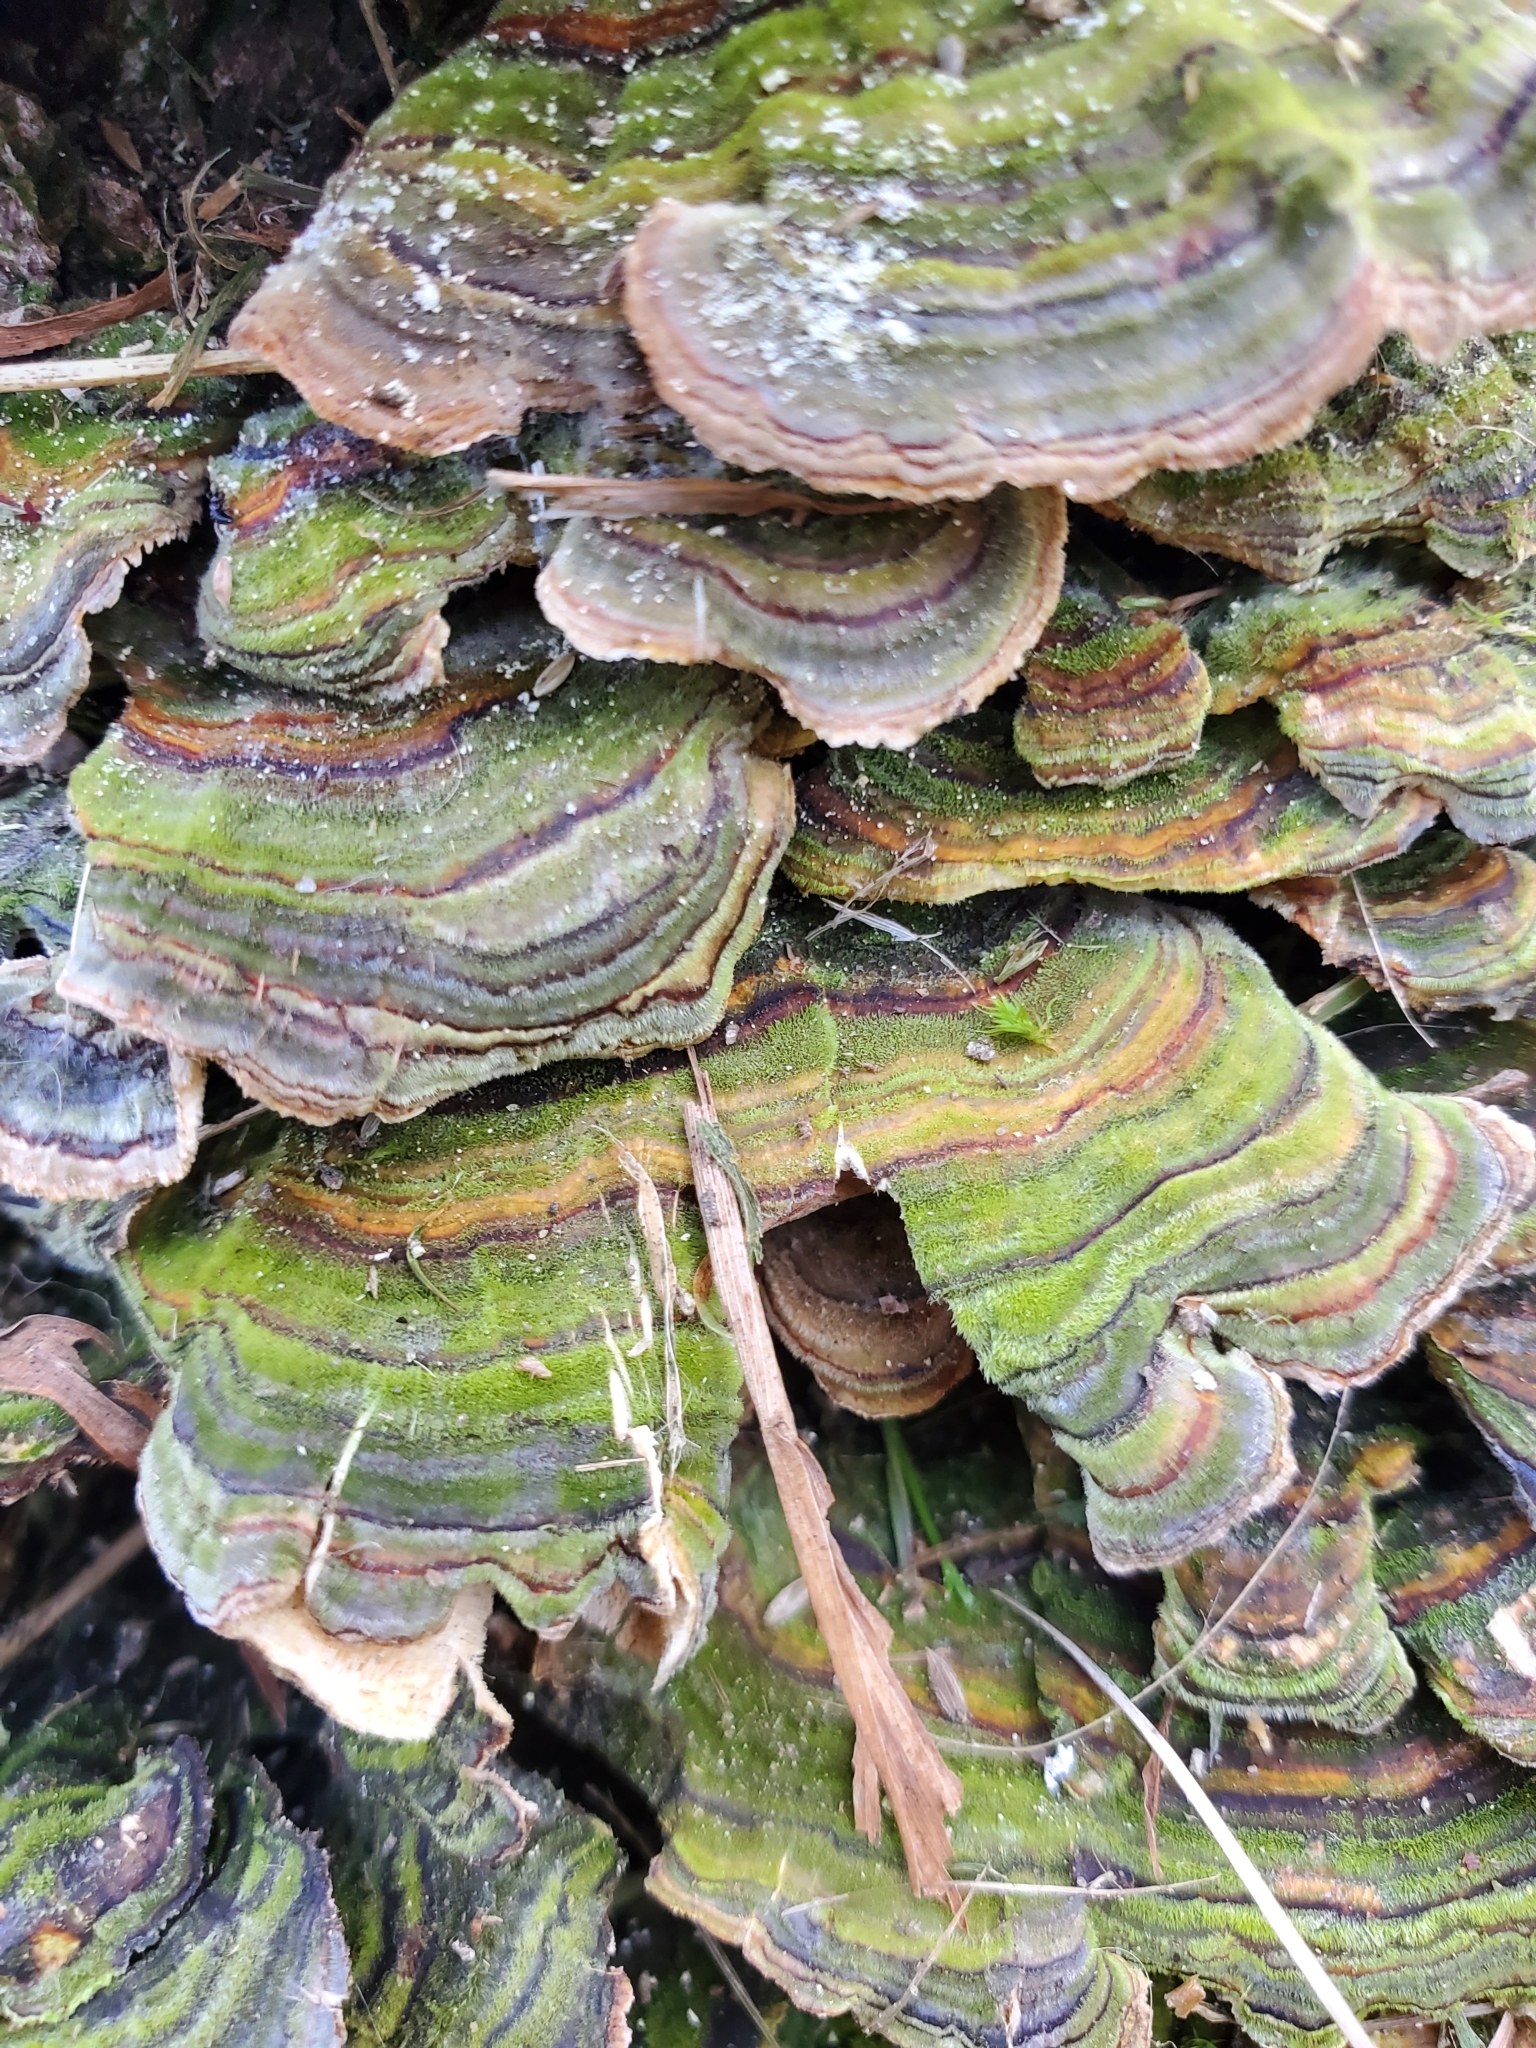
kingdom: Fungi
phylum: Basidiomycota
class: Agaricomycetes
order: Polyporales
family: Polyporaceae
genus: Trametes
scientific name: Trametes versicolor
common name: Turkeytail
